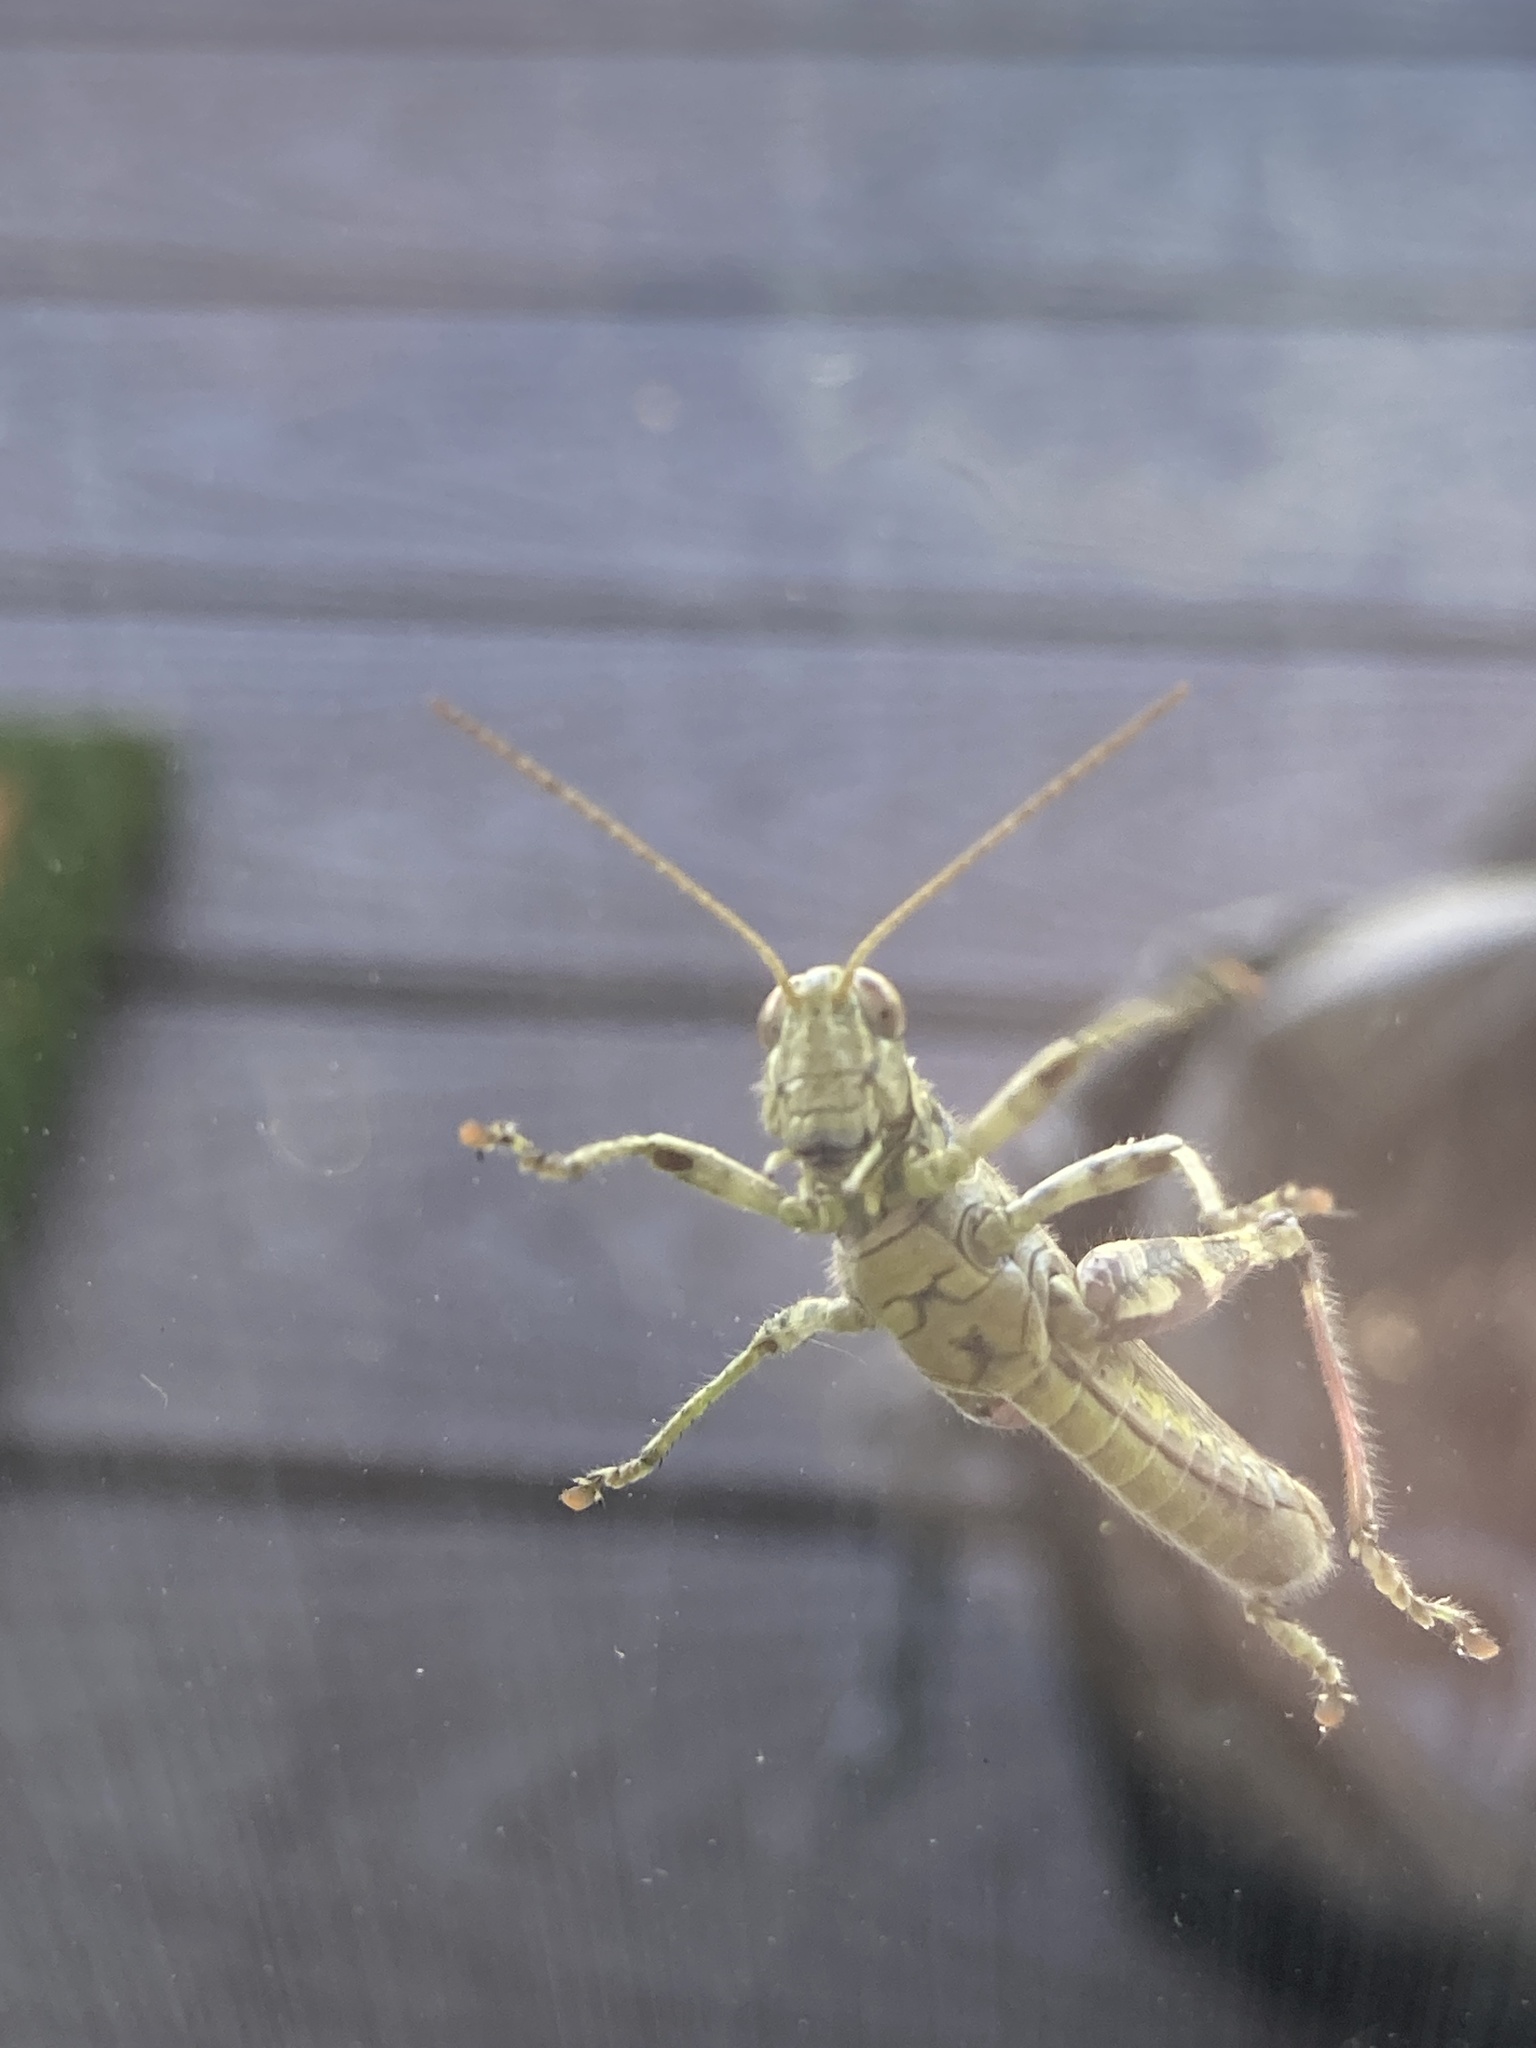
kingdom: Animalia
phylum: Arthropoda
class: Insecta
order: Orthoptera
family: Acrididae
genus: Melanoplus
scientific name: Melanoplus punctulatus
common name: Pine-tree spur-throat grasshopper
